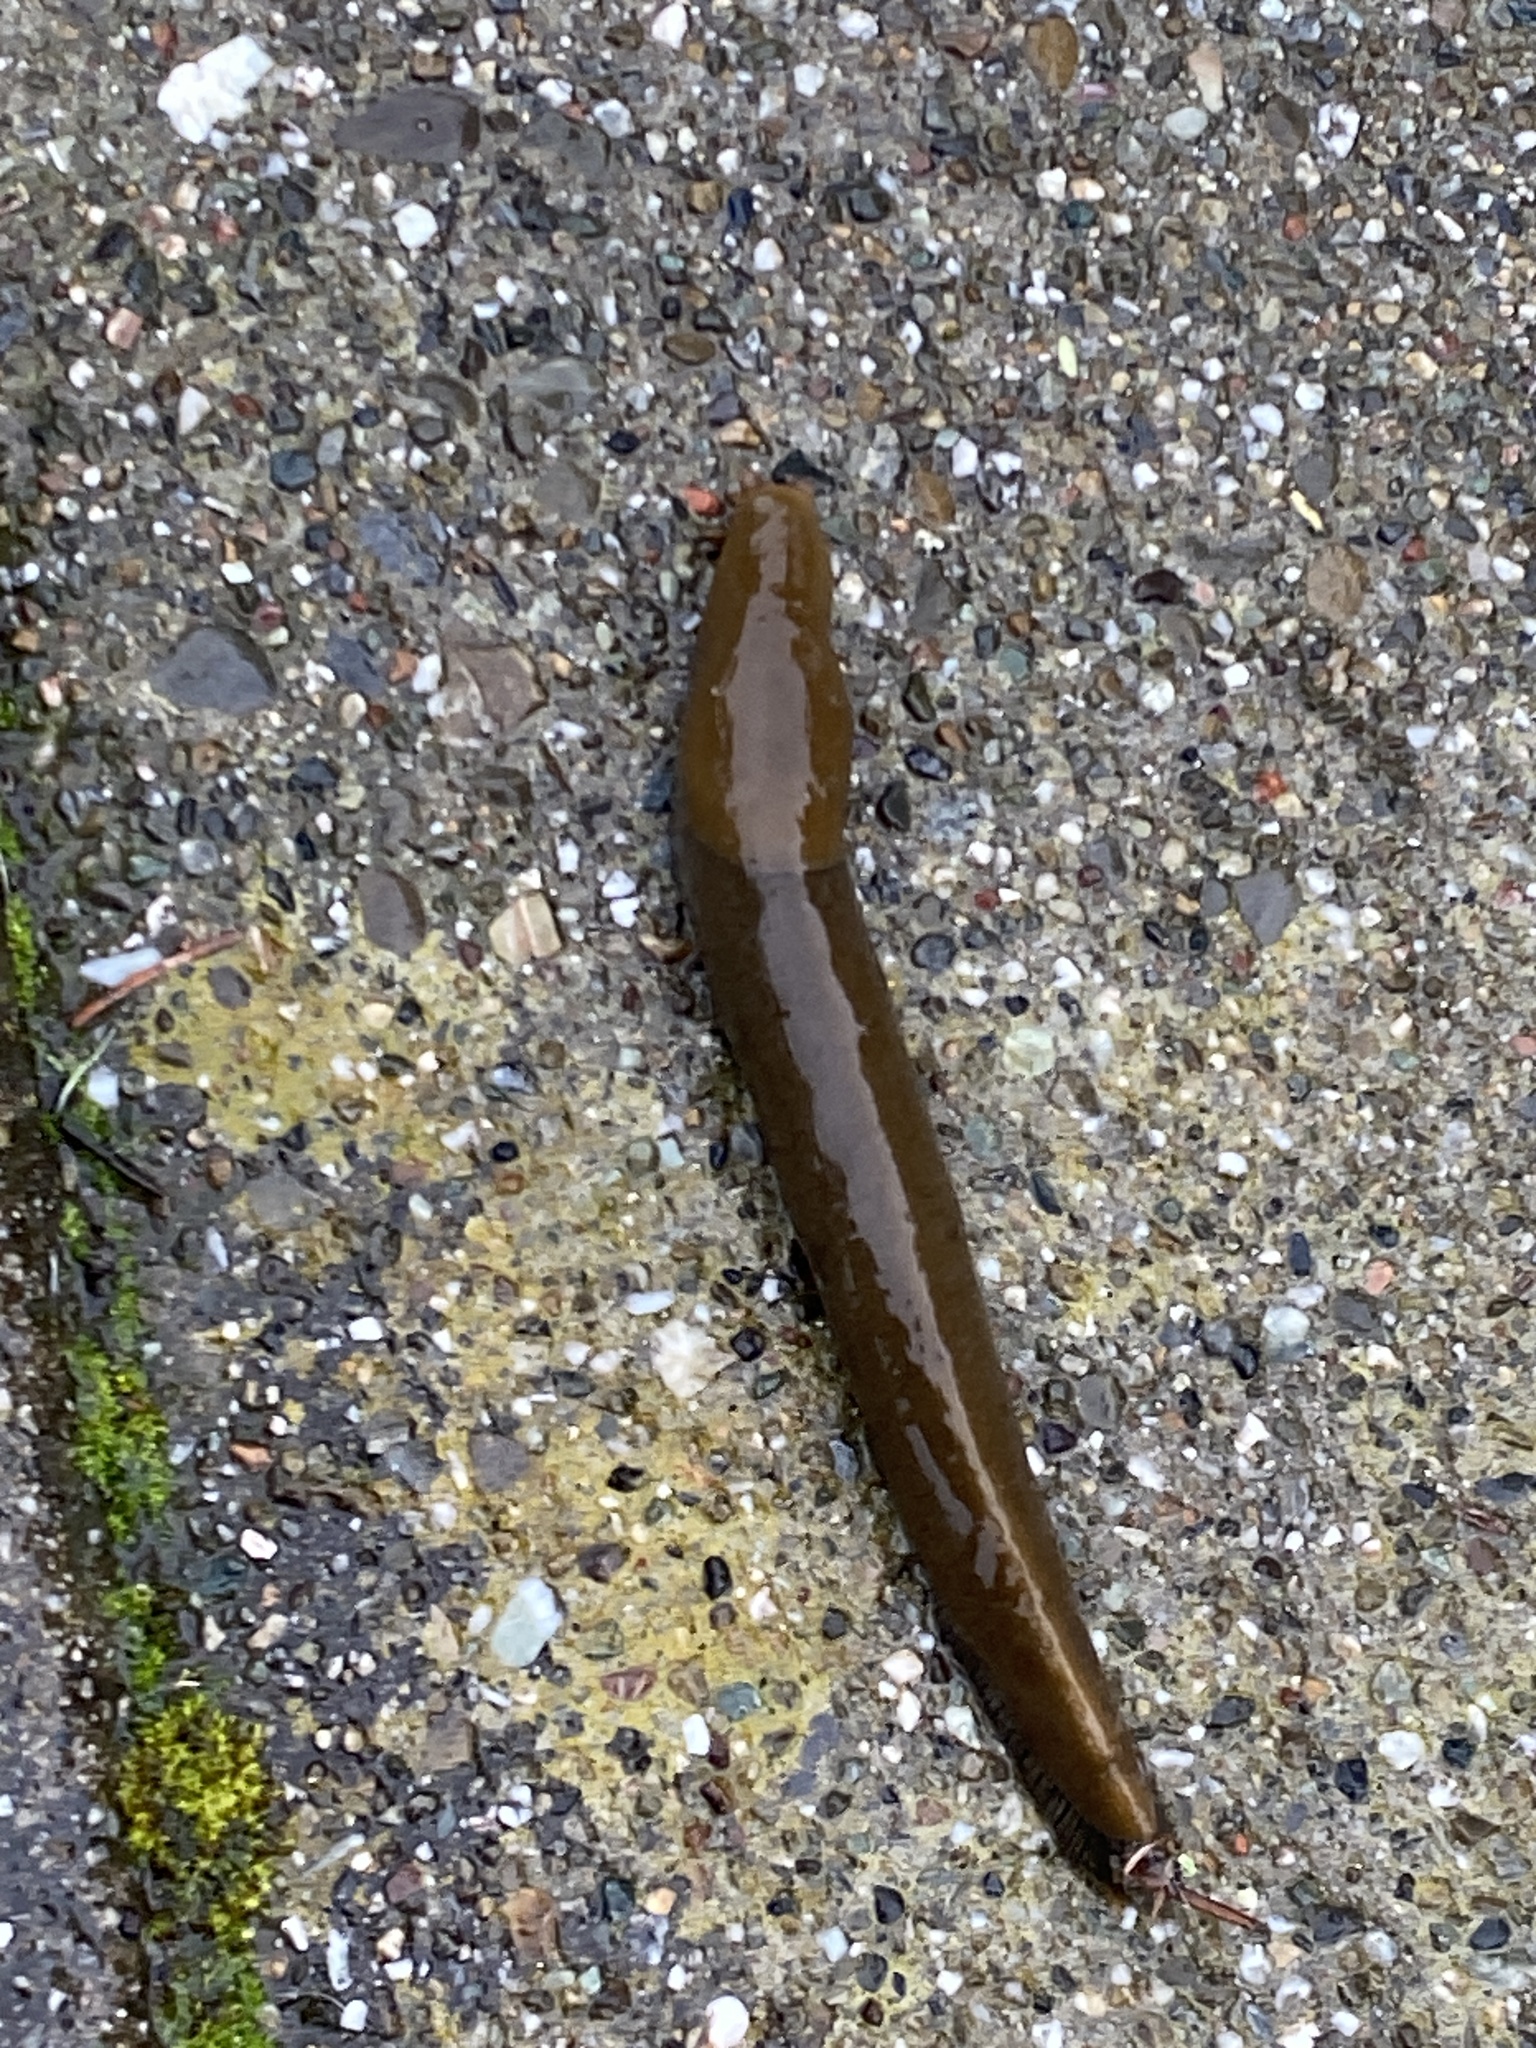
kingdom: Animalia
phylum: Mollusca
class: Gastropoda
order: Stylommatophora
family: Ariolimacidae
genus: Ariolimax
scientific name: Ariolimax buttoni
